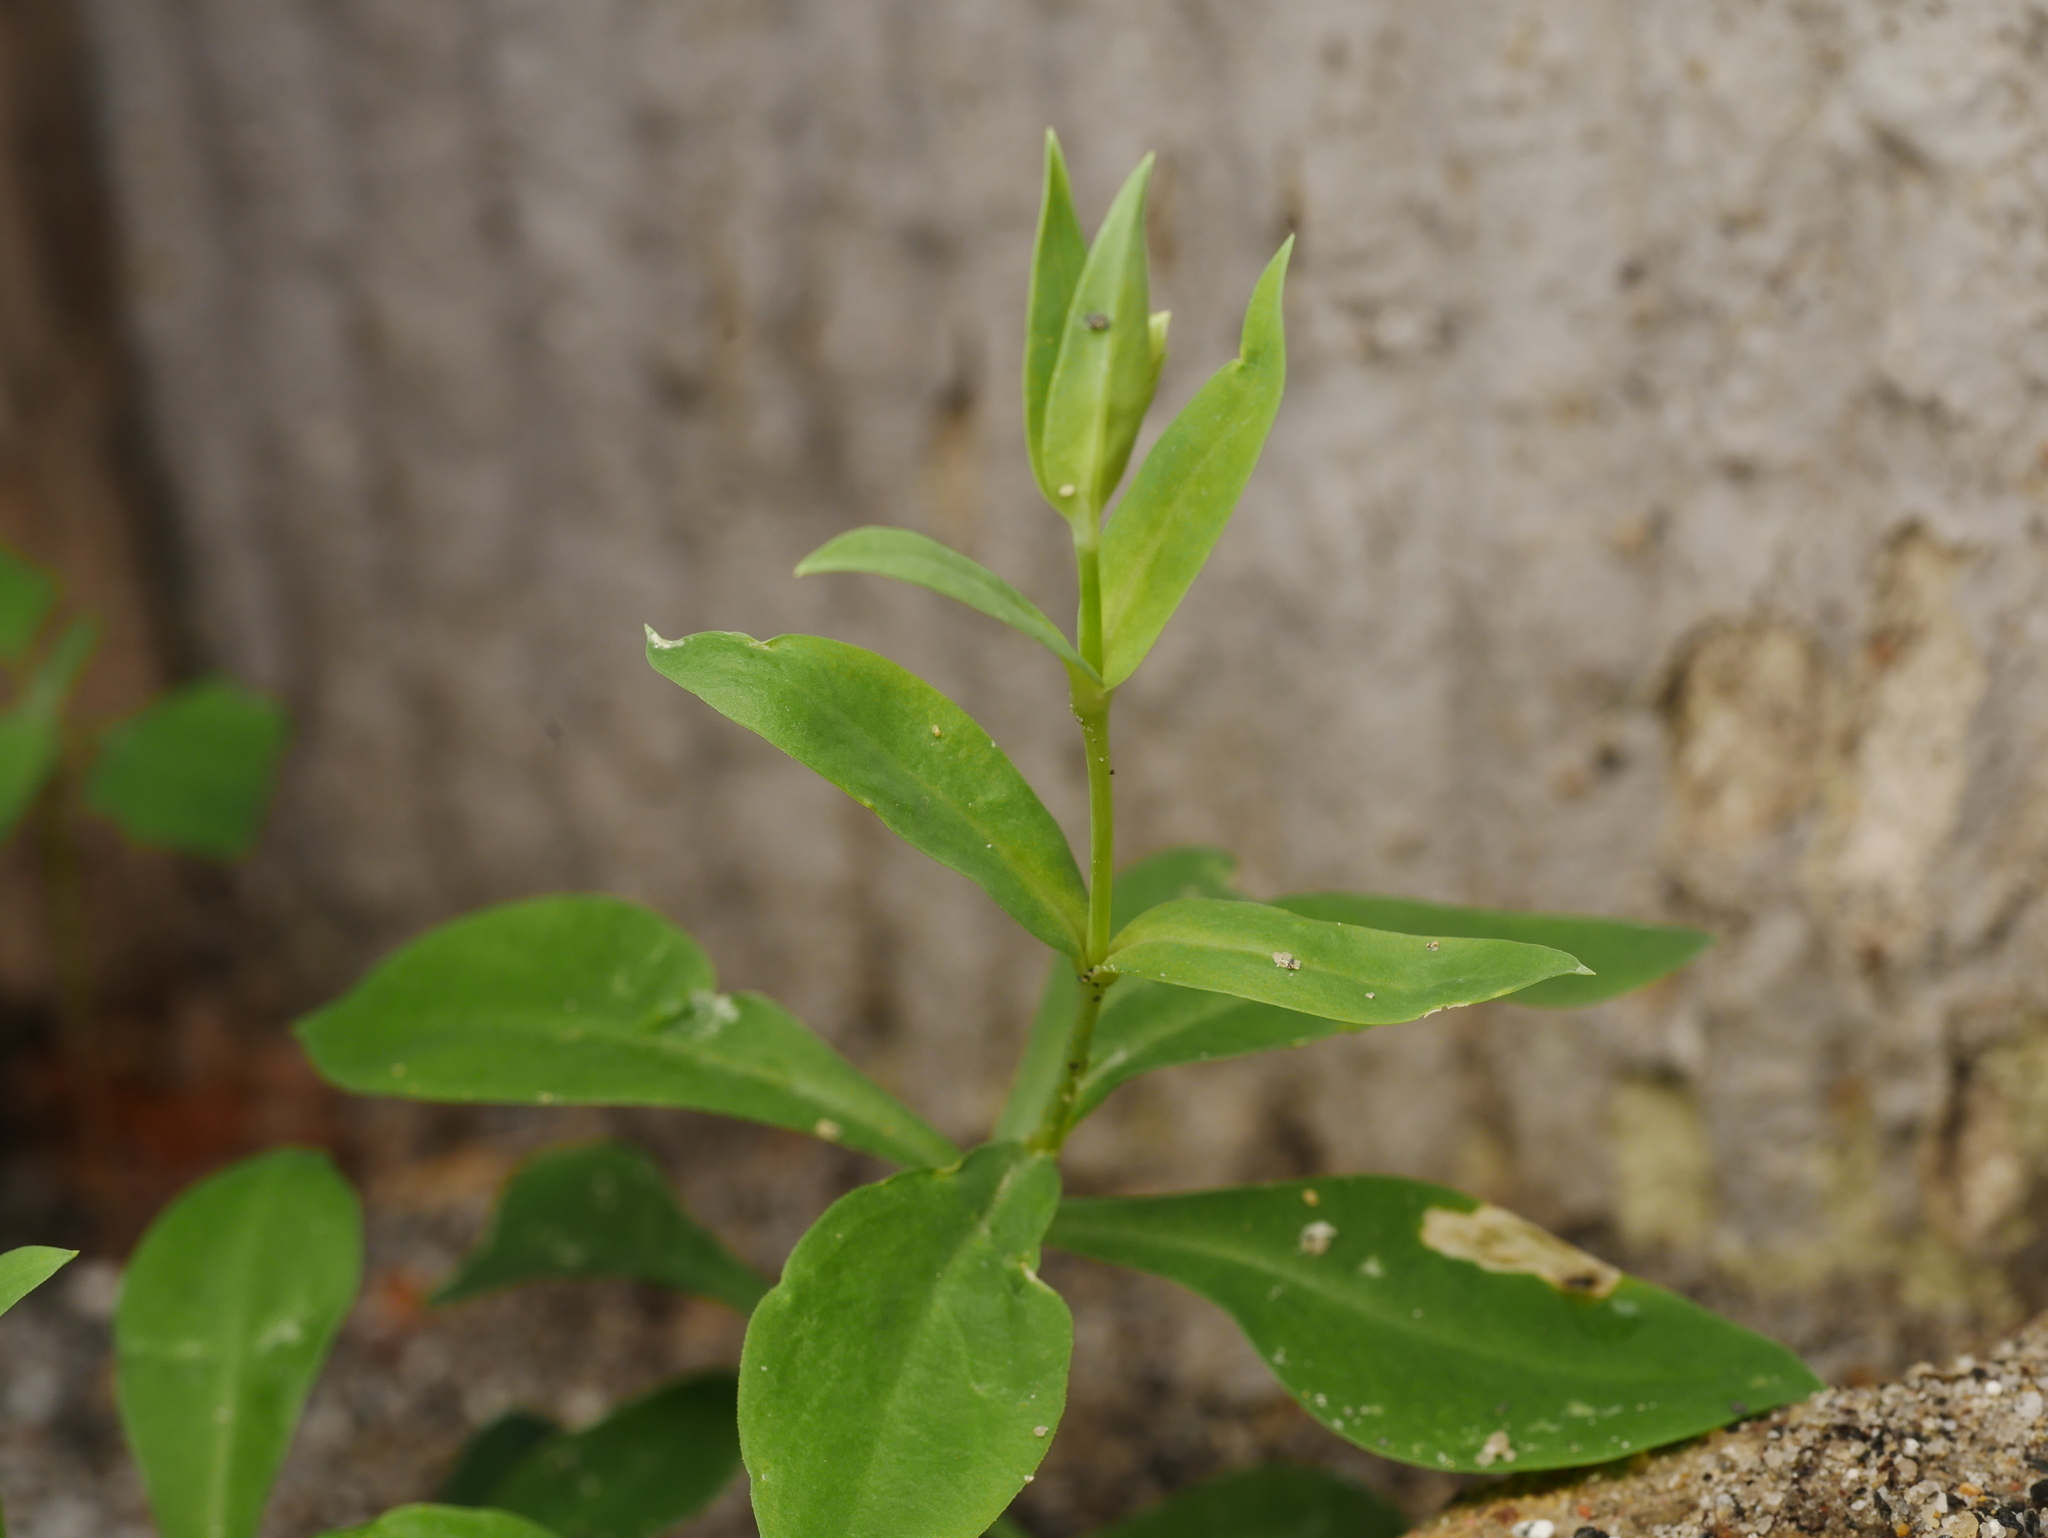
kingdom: Plantae
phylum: Tracheophyta
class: Magnoliopsida
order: Caryophyllales
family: Caryophyllaceae
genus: Saponaria
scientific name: Saponaria officinalis
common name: Soapwort
